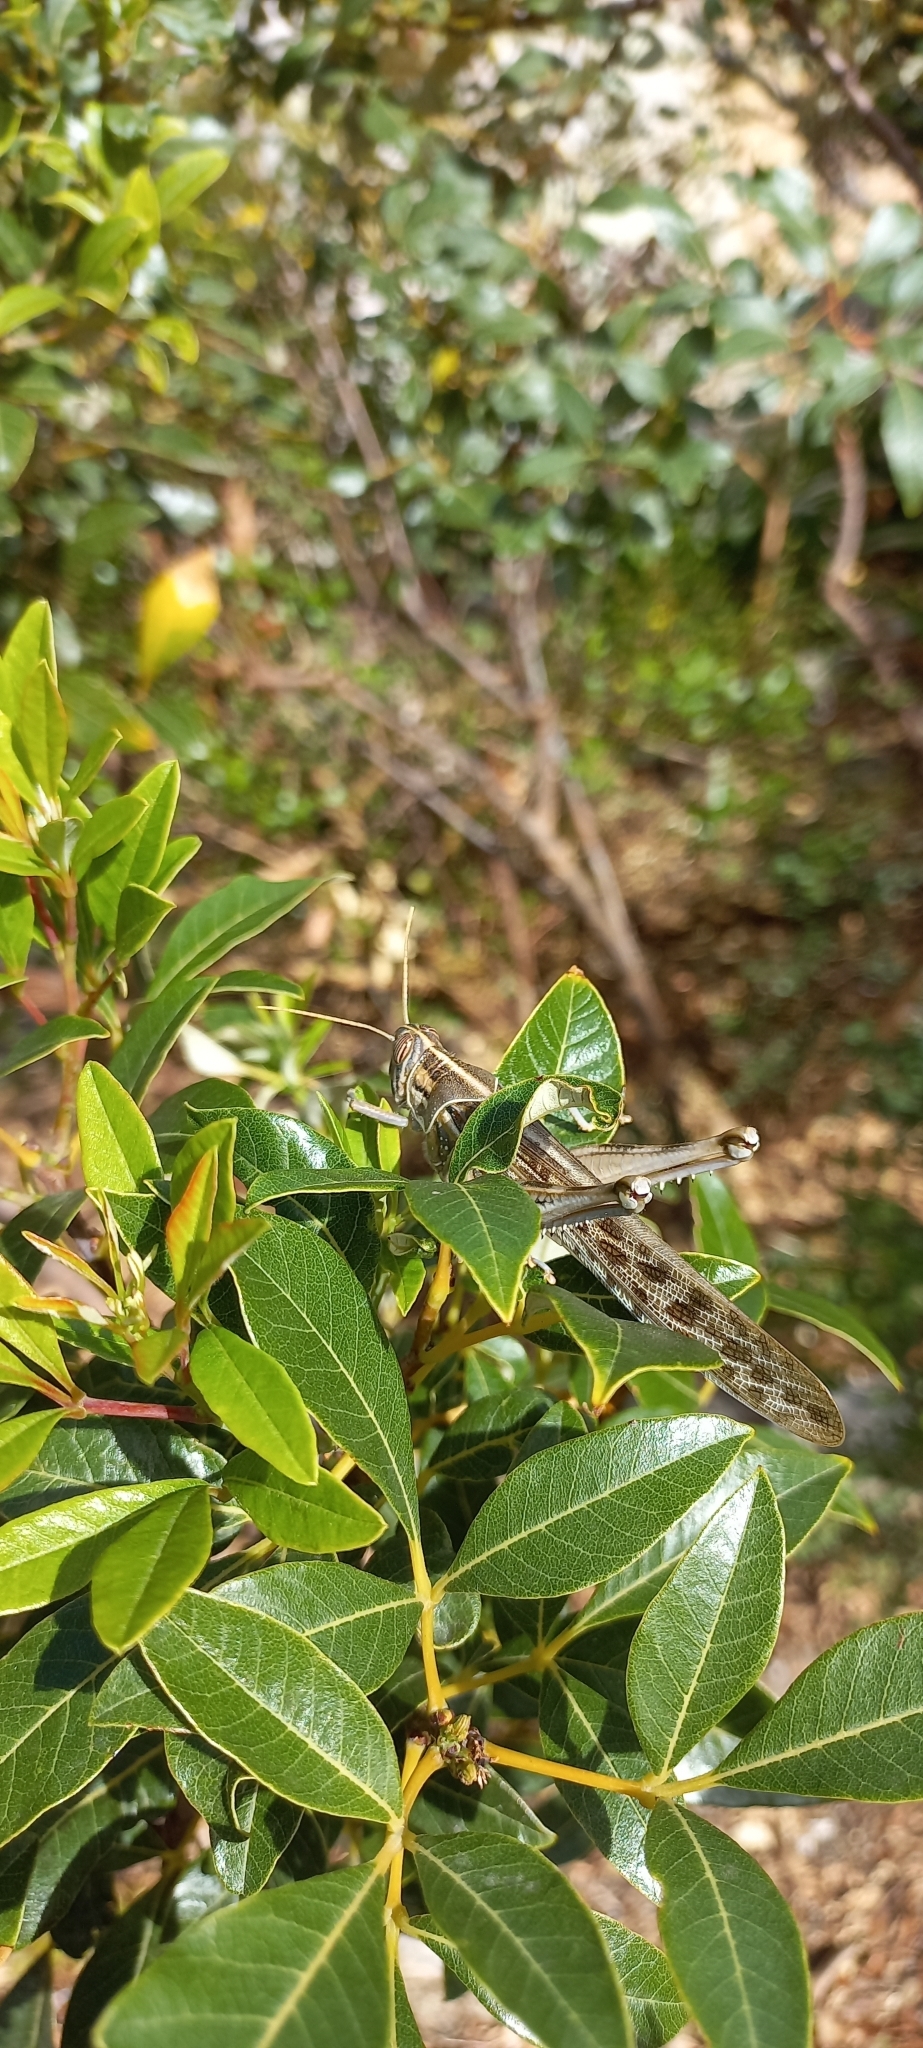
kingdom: Animalia
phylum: Arthropoda
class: Insecta
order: Orthoptera
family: Acrididae
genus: Schistocerca
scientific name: Schistocerca gregaria
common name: Desert locust
